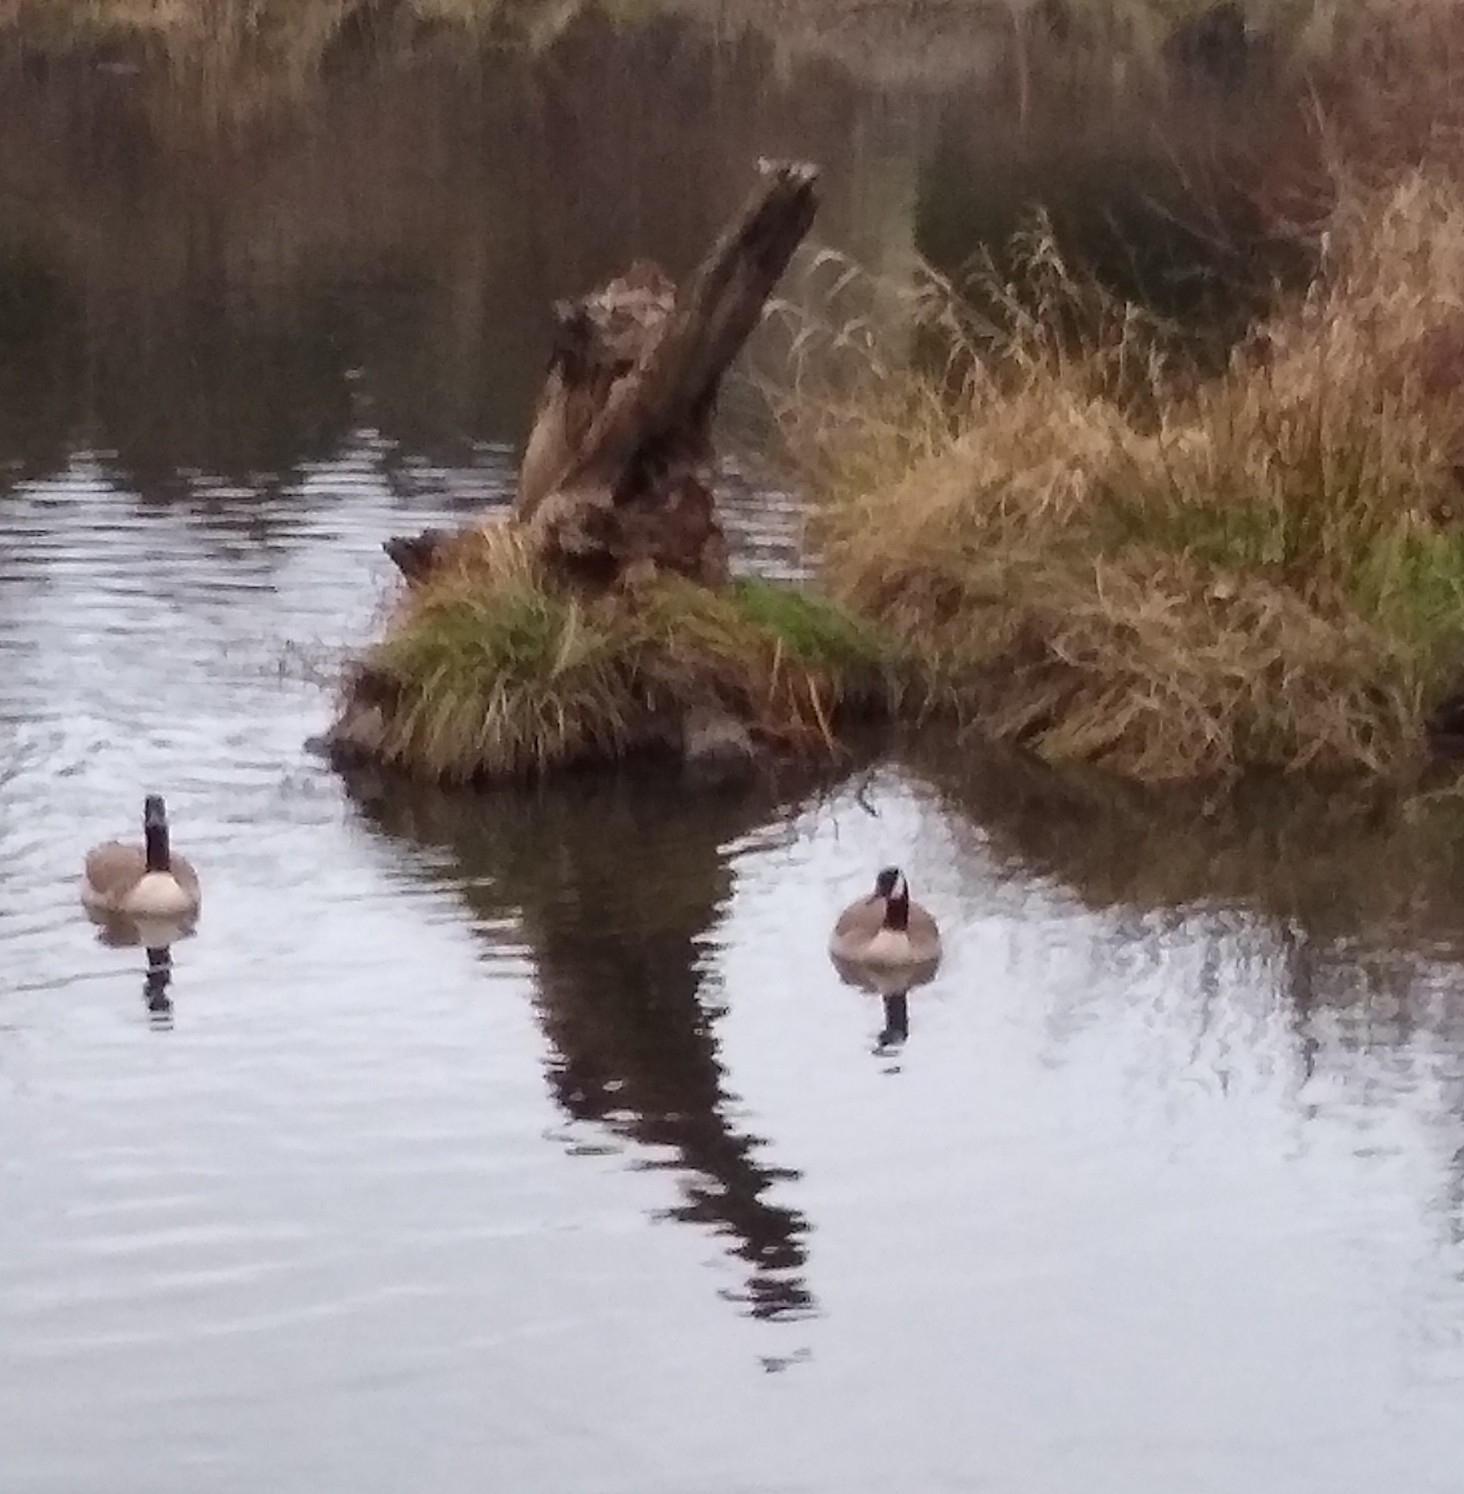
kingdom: Animalia
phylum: Chordata
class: Aves
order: Anseriformes
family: Anatidae
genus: Branta
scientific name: Branta canadensis
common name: Canada goose
